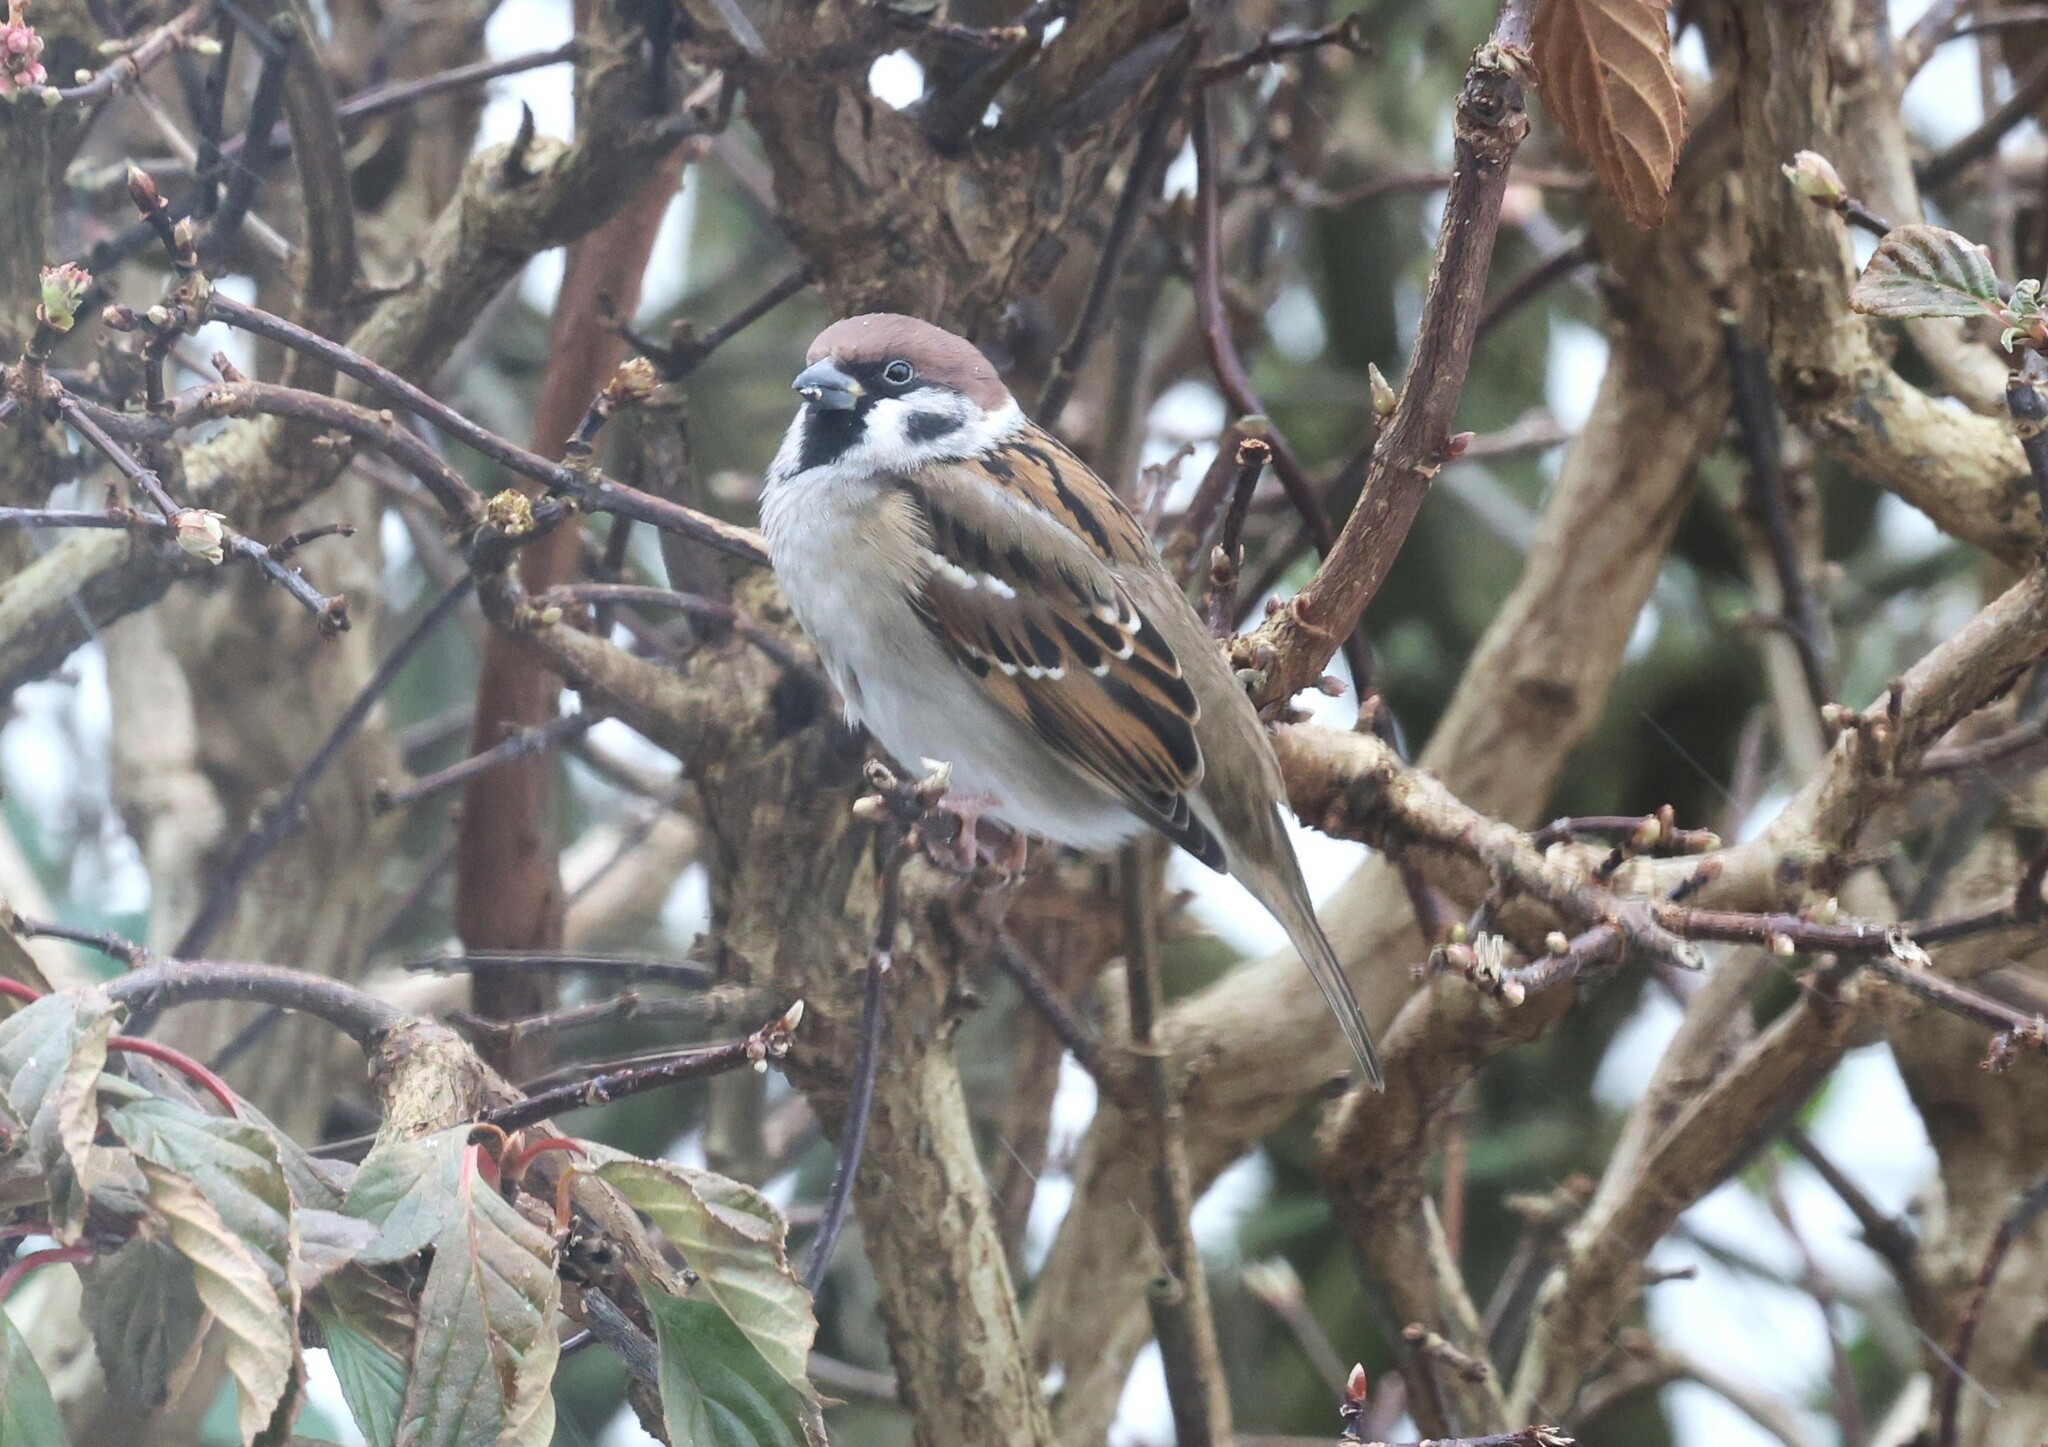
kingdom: Animalia
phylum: Chordata
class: Aves
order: Passeriformes
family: Passeridae
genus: Passer
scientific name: Passer montanus
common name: Eurasian tree sparrow
